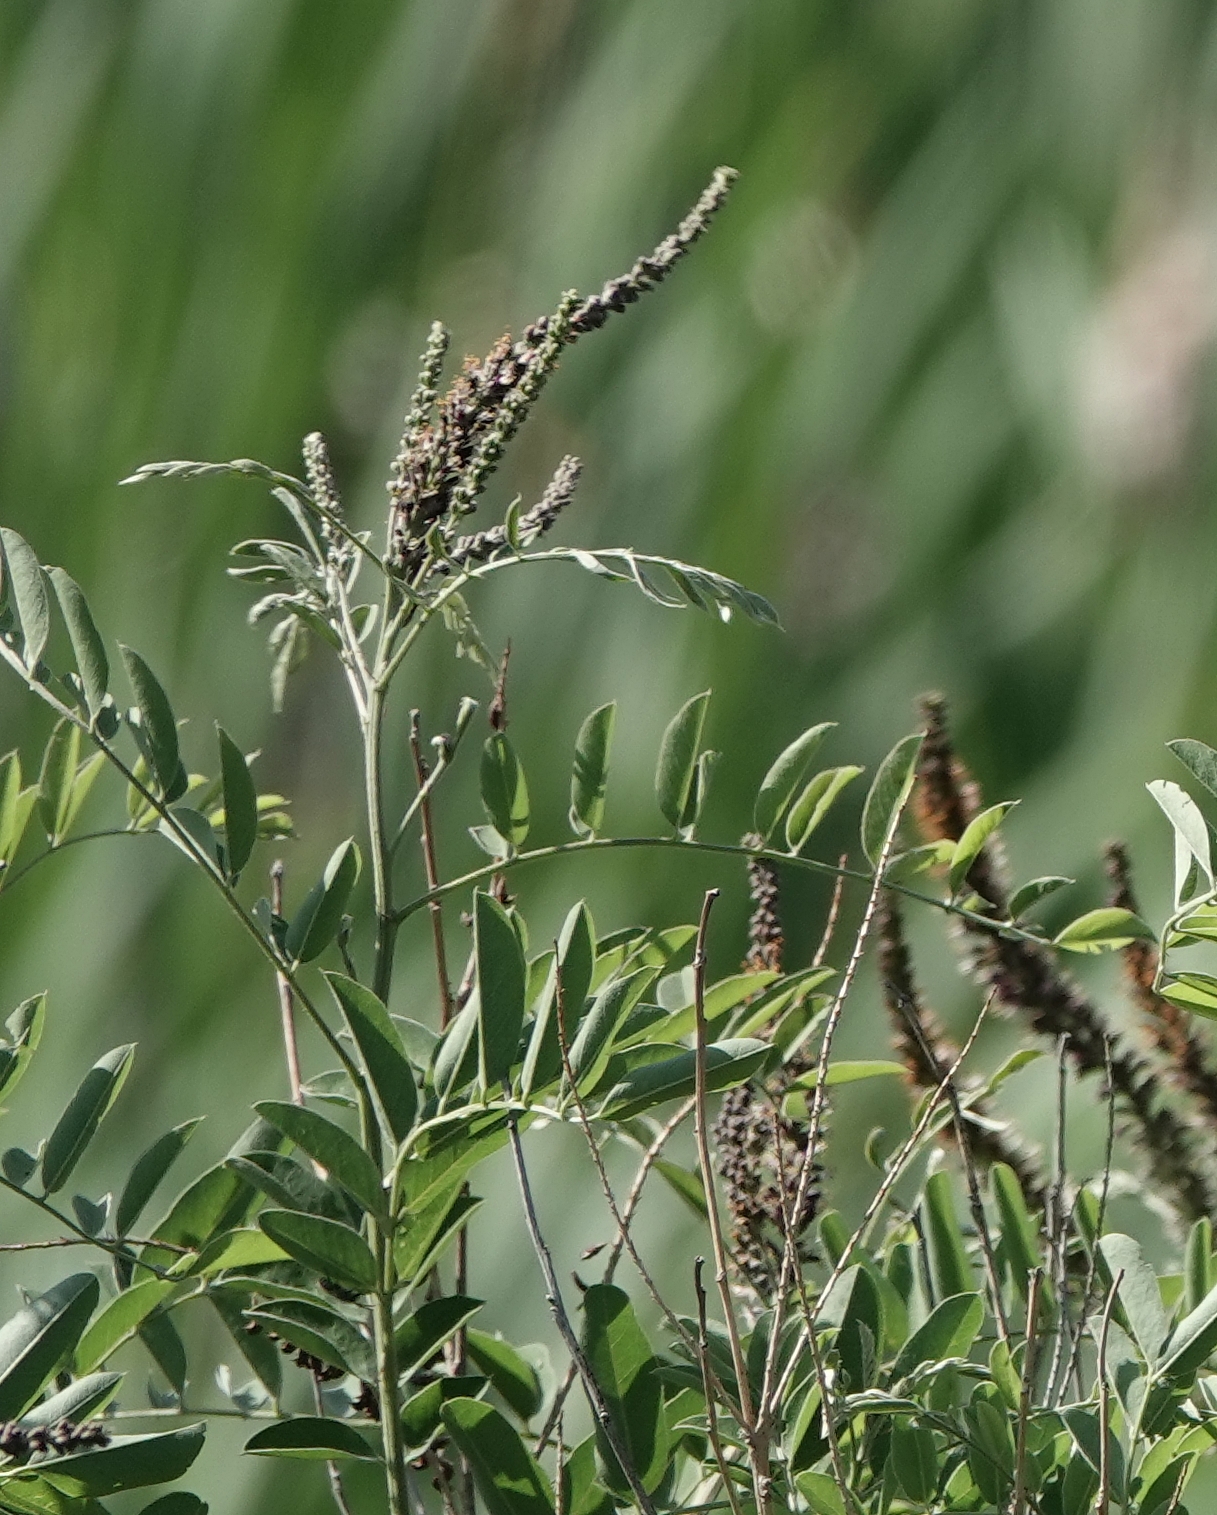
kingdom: Plantae
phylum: Tracheophyta
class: Magnoliopsida
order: Fabales
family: Fabaceae
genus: Amorpha
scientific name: Amorpha fruticosa
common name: False indigo
